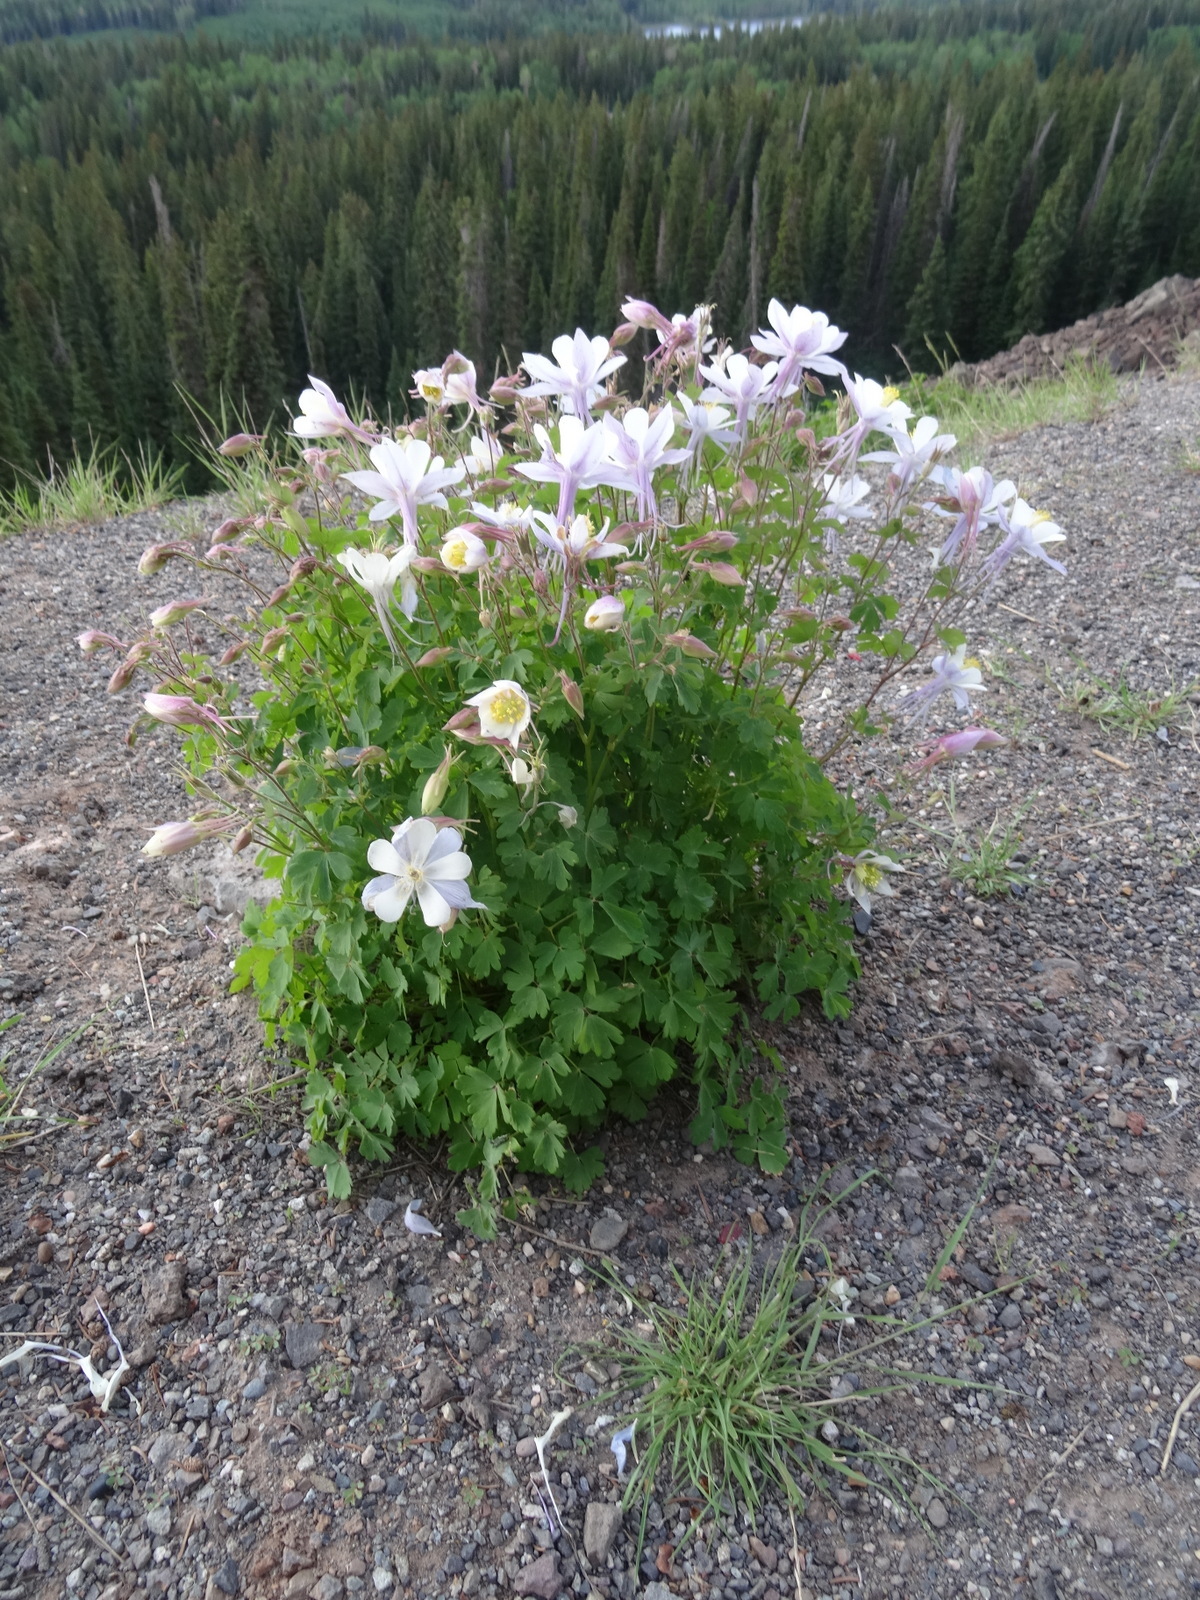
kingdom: Plantae
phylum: Tracheophyta
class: Magnoliopsida
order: Ranunculales
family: Ranunculaceae
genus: Aquilegia
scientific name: Aquilegia coerulea
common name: Rocky mountain columbine
